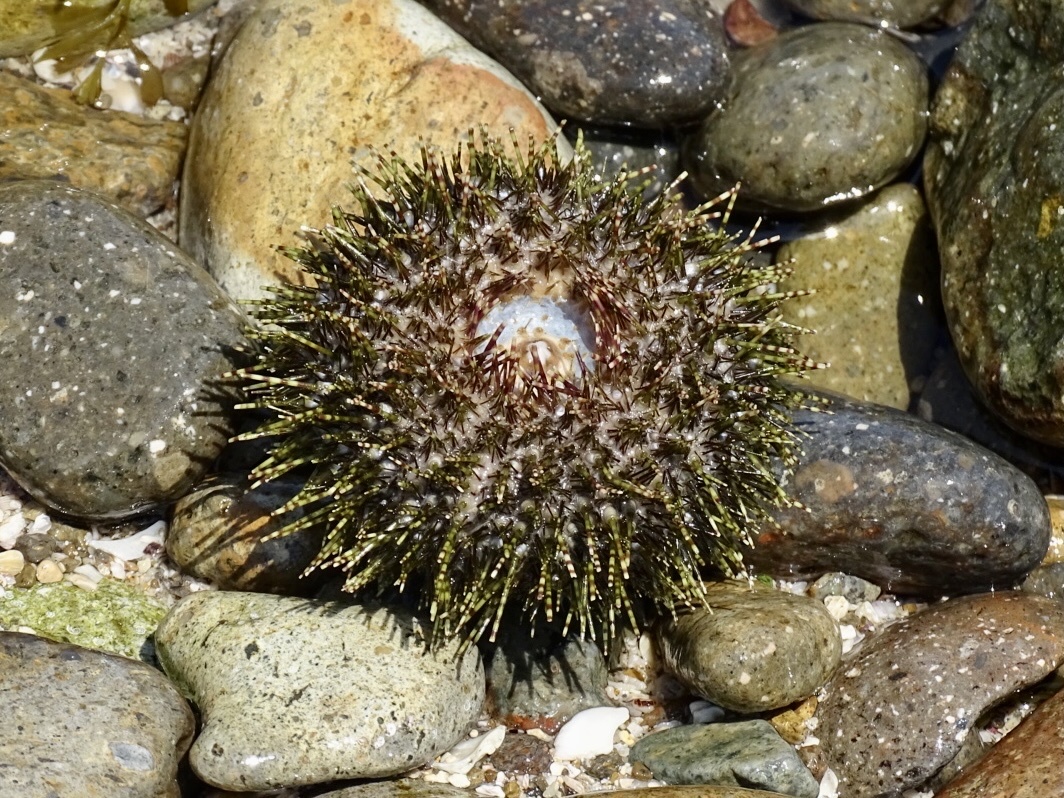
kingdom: Animalia
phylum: Echinodermata
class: Echinoidea
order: Camarodonta
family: Temnopleuridae
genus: Salmacis
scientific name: Salmacis sphaeroides
